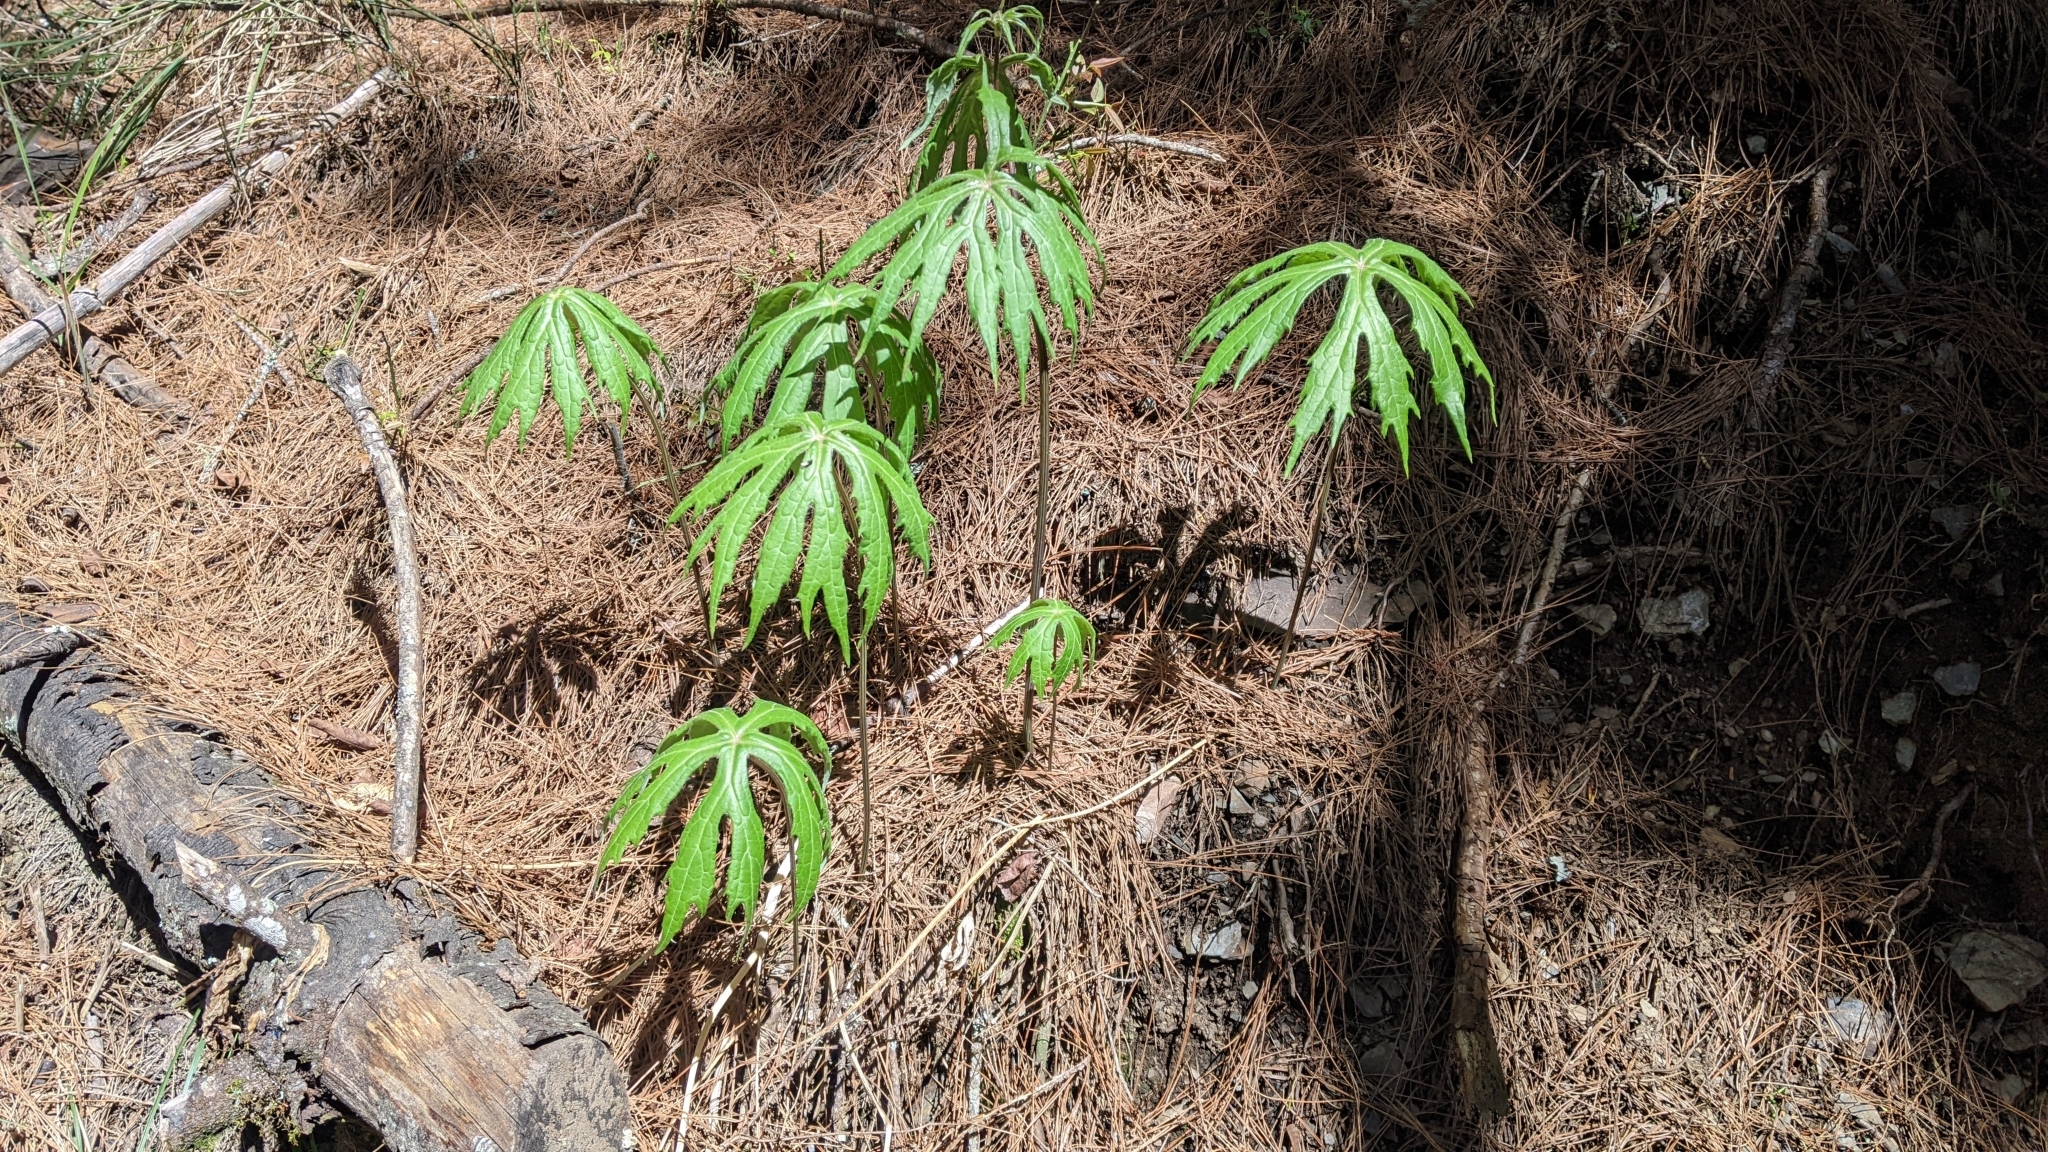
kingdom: Plantae
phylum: Tracheophyta
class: Magnoliopsida
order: Asterales
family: Asteraceae
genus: Syneilesis
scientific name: Syneilesis subglabrata
